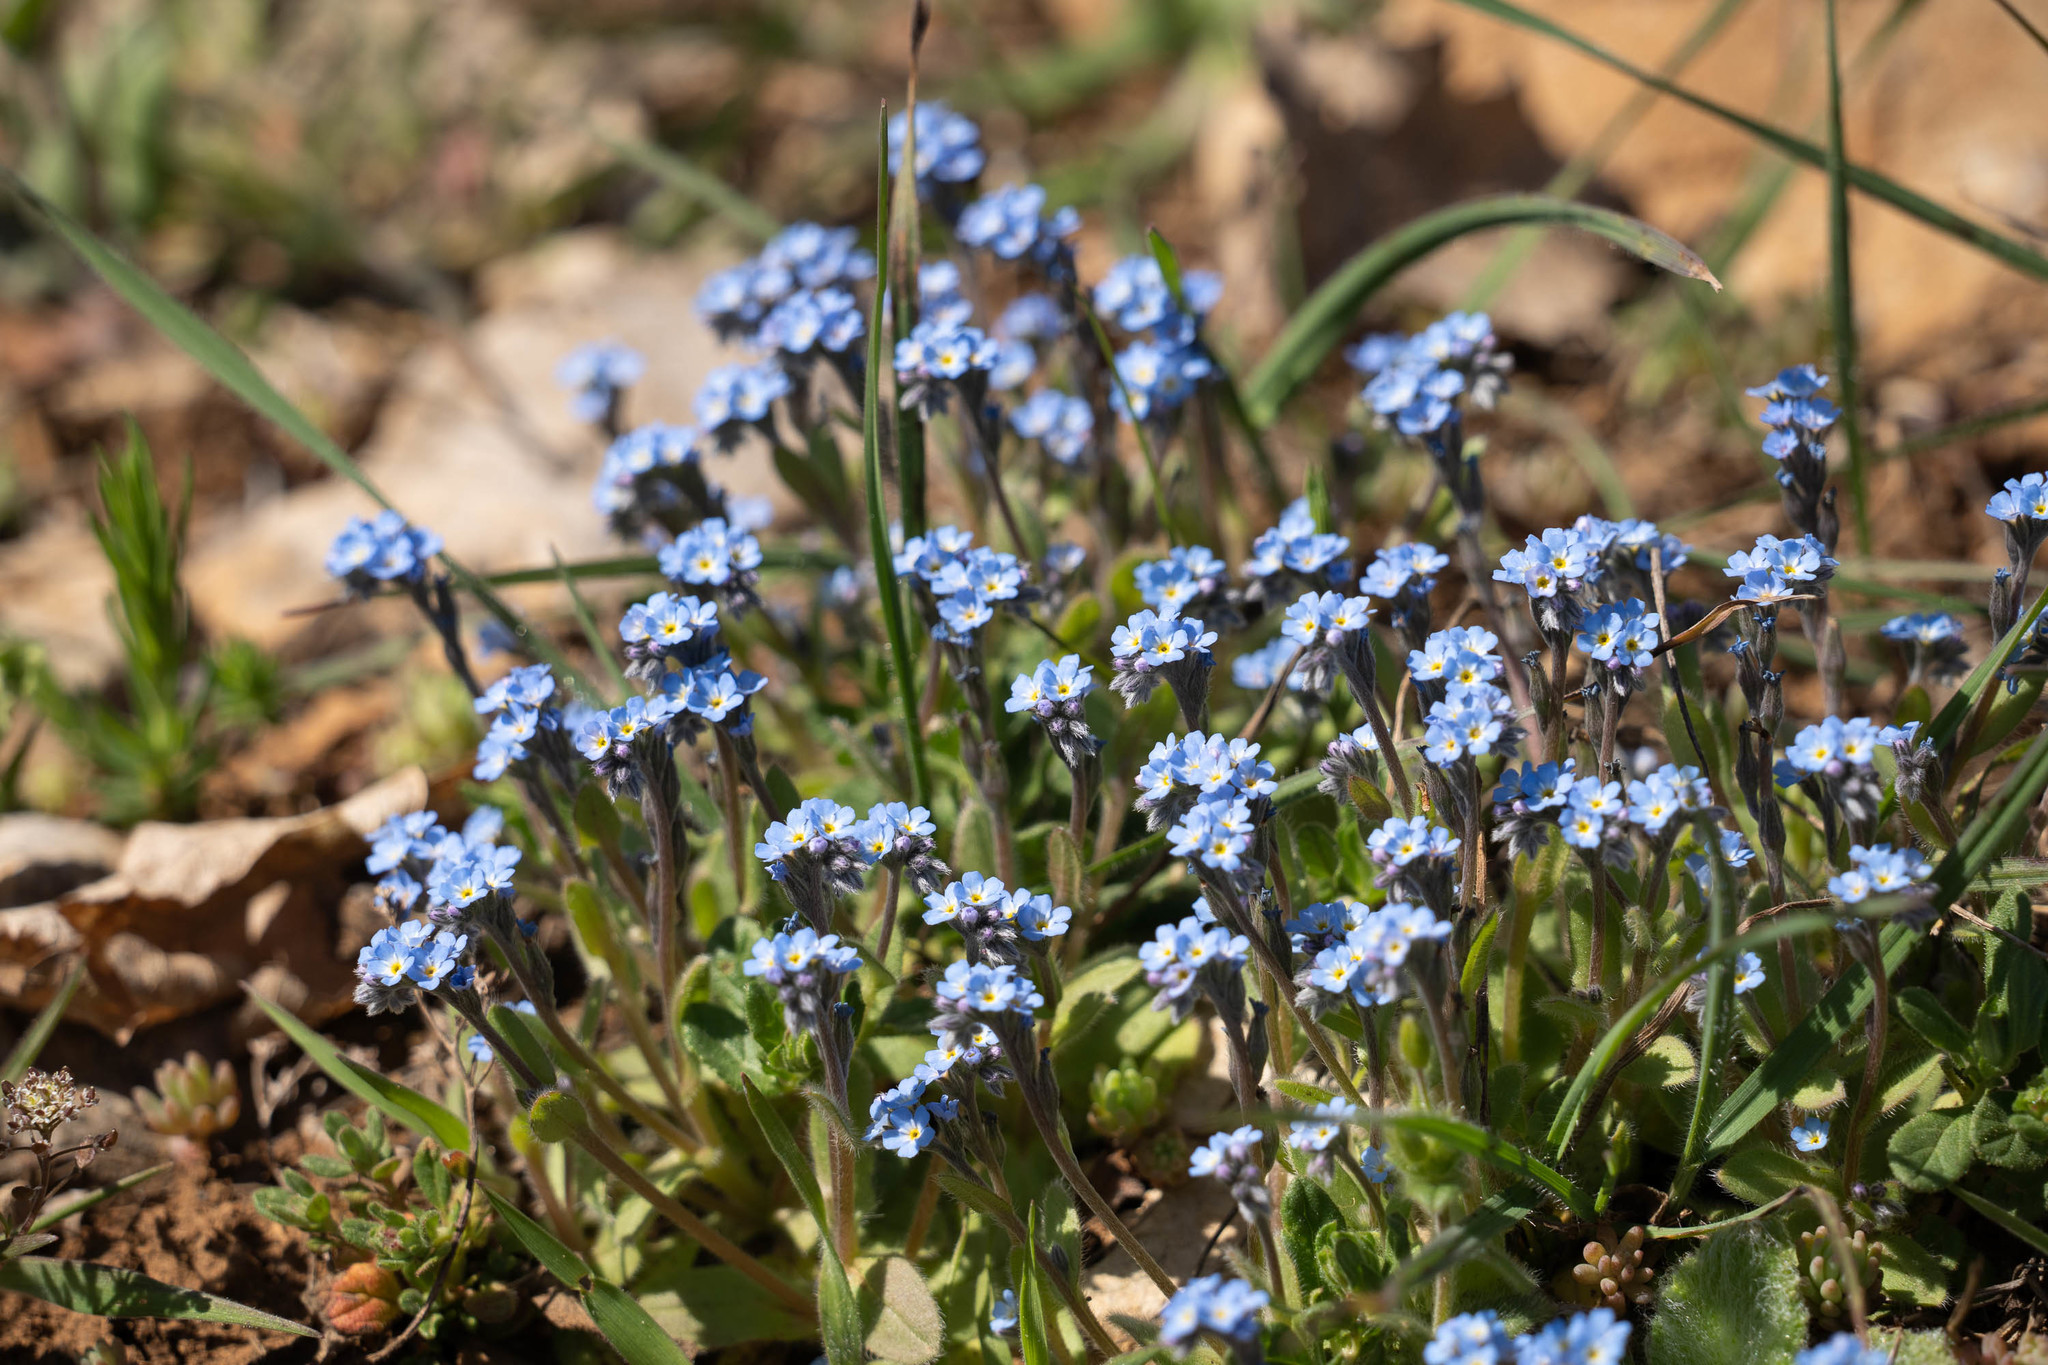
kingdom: Plantae
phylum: Tracheophyta
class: Magnoliopsida
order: Boraginales
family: Boraginaceae
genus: Myosotis
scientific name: Myosotis incrassata
